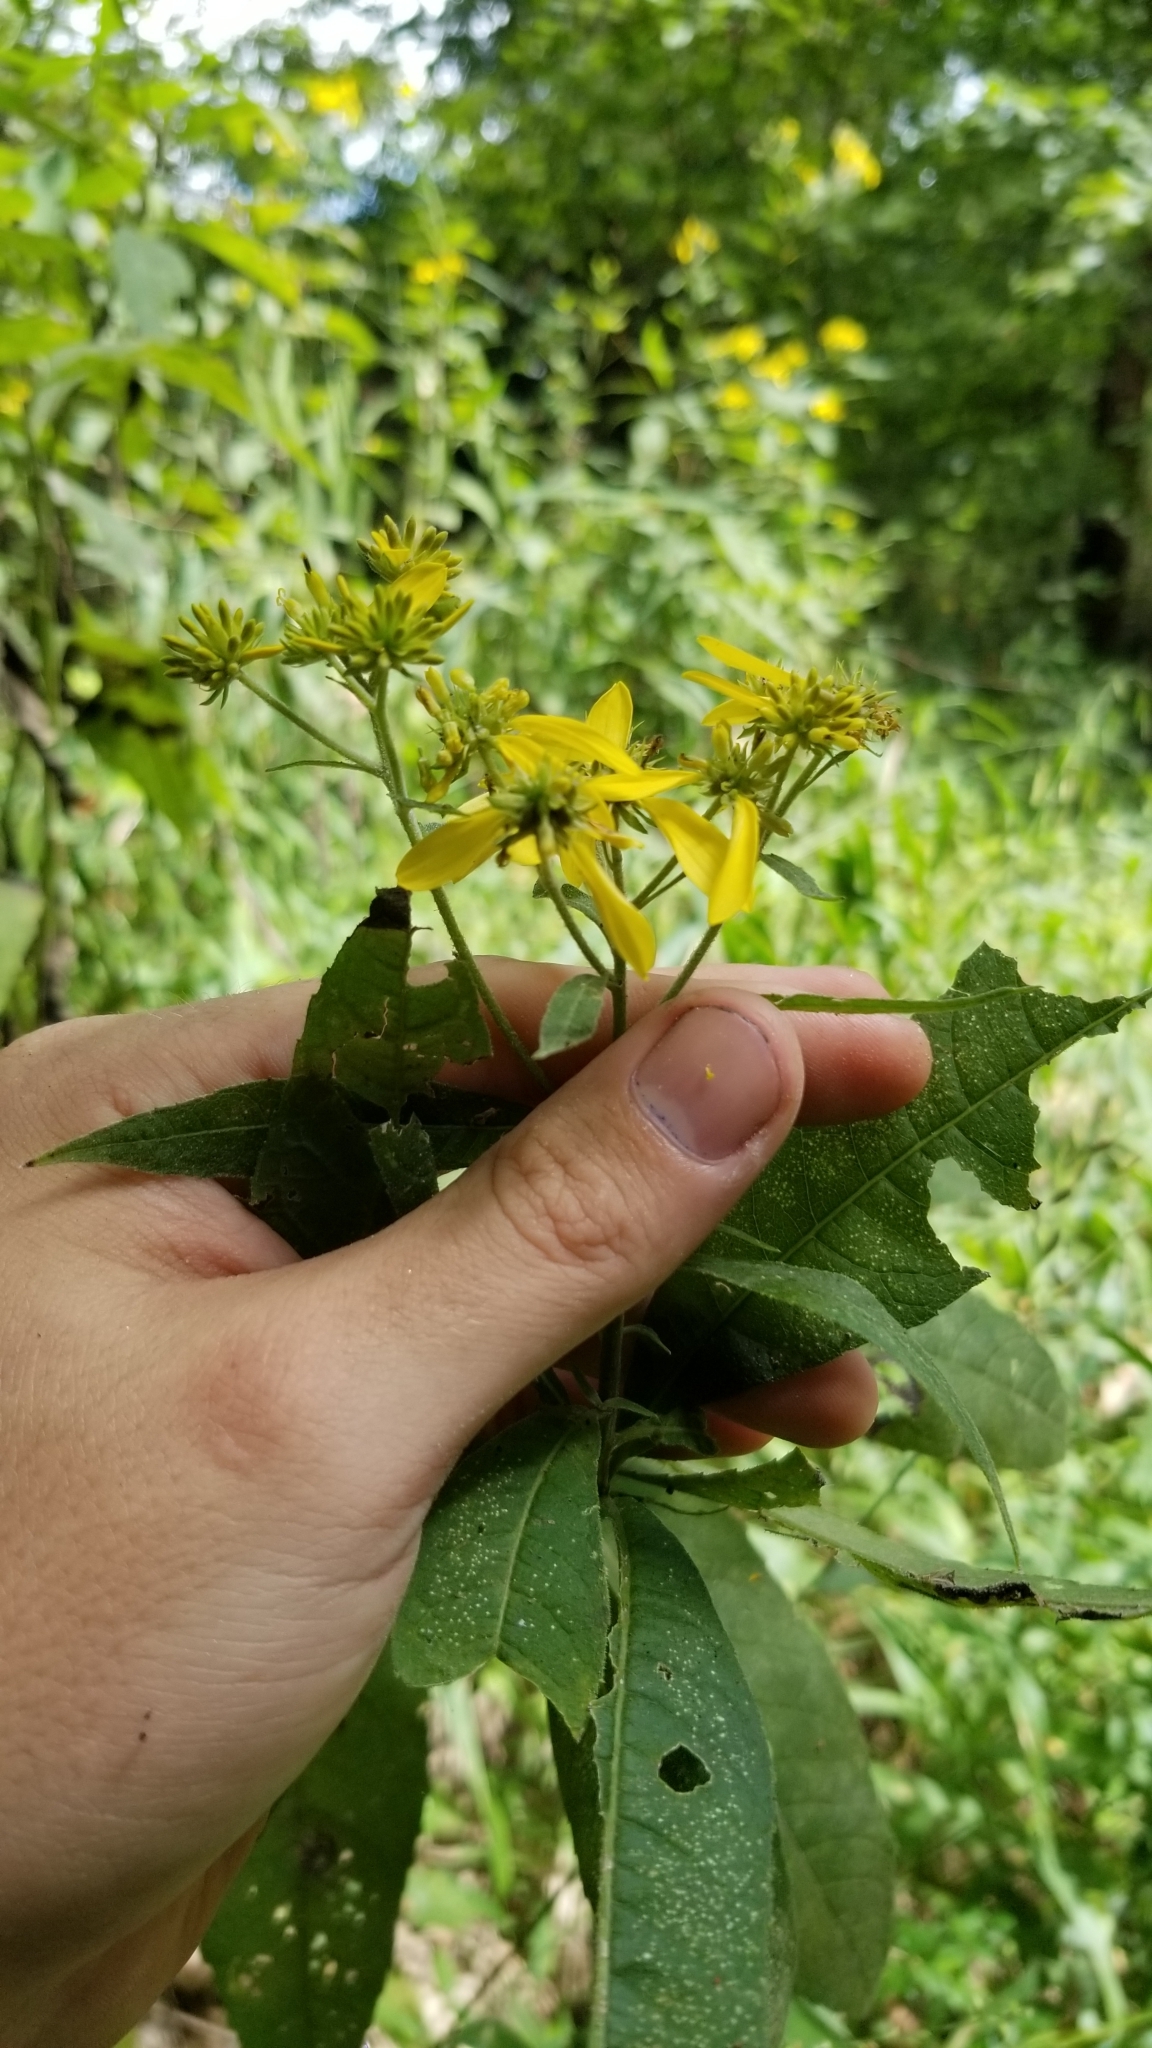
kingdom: Plantae
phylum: Tracheophyta
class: Magnoliopsida
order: Asterales
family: Asteraceae
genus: Verbesina
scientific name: Verbesina alternifolia
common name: Wingstem
